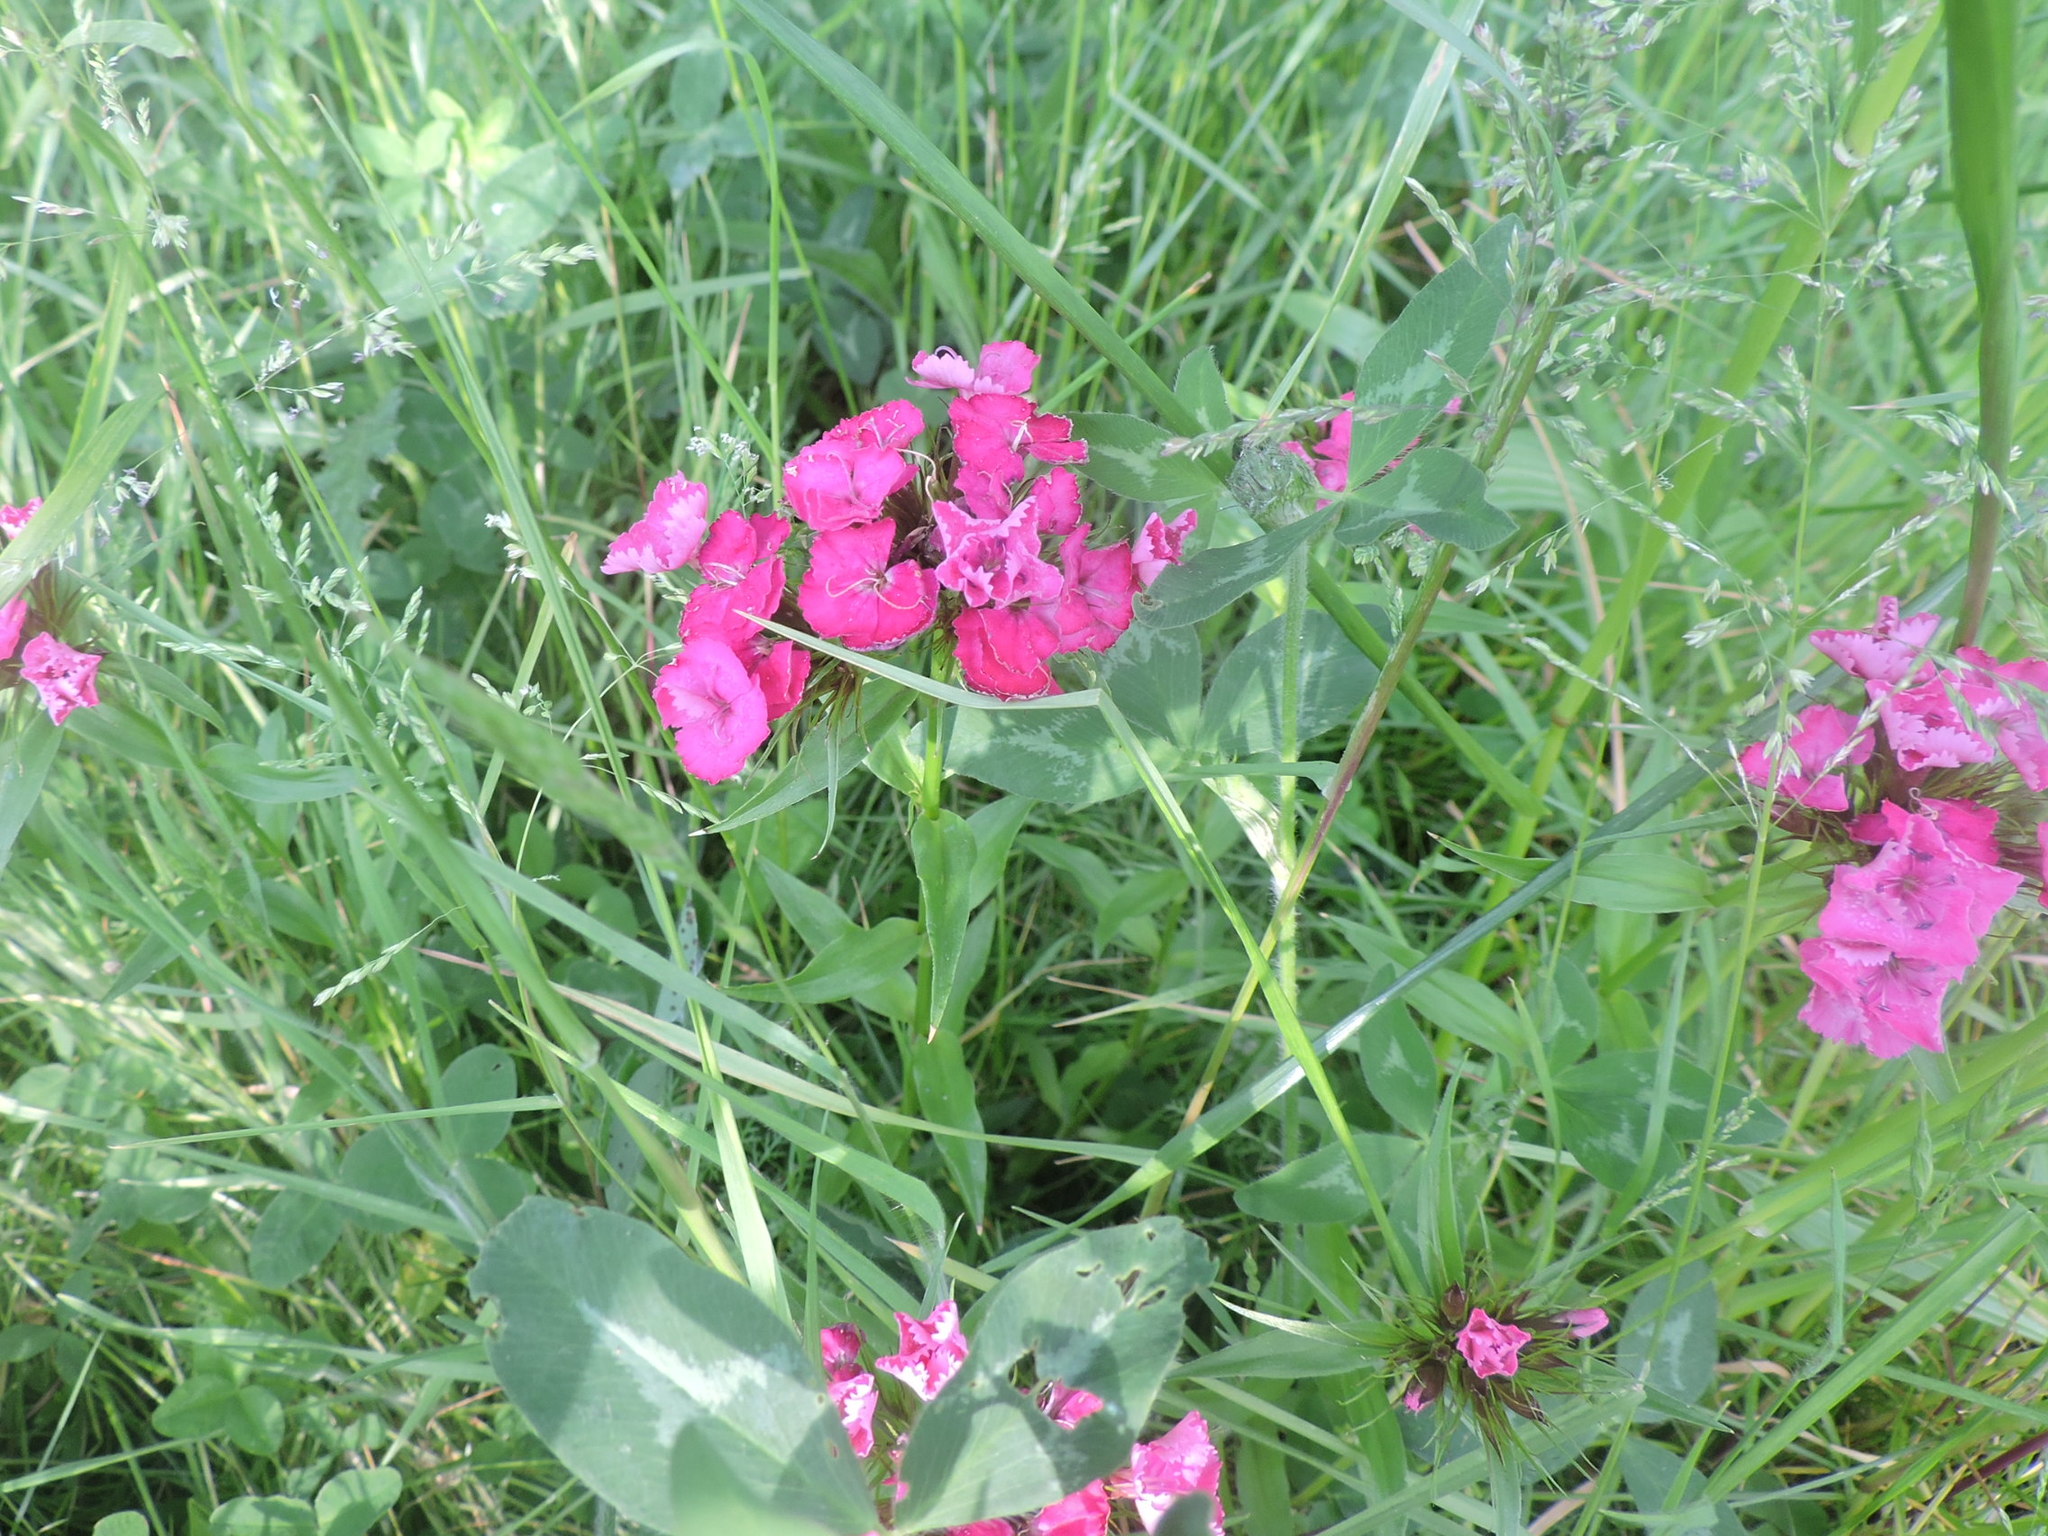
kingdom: Plantae
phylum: Tracheophyta
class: Magnoliopsida
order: Caryophyllales
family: Caryophyllaceae
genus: Dianthus
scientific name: Dianthus barbatus
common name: Sweet-william
